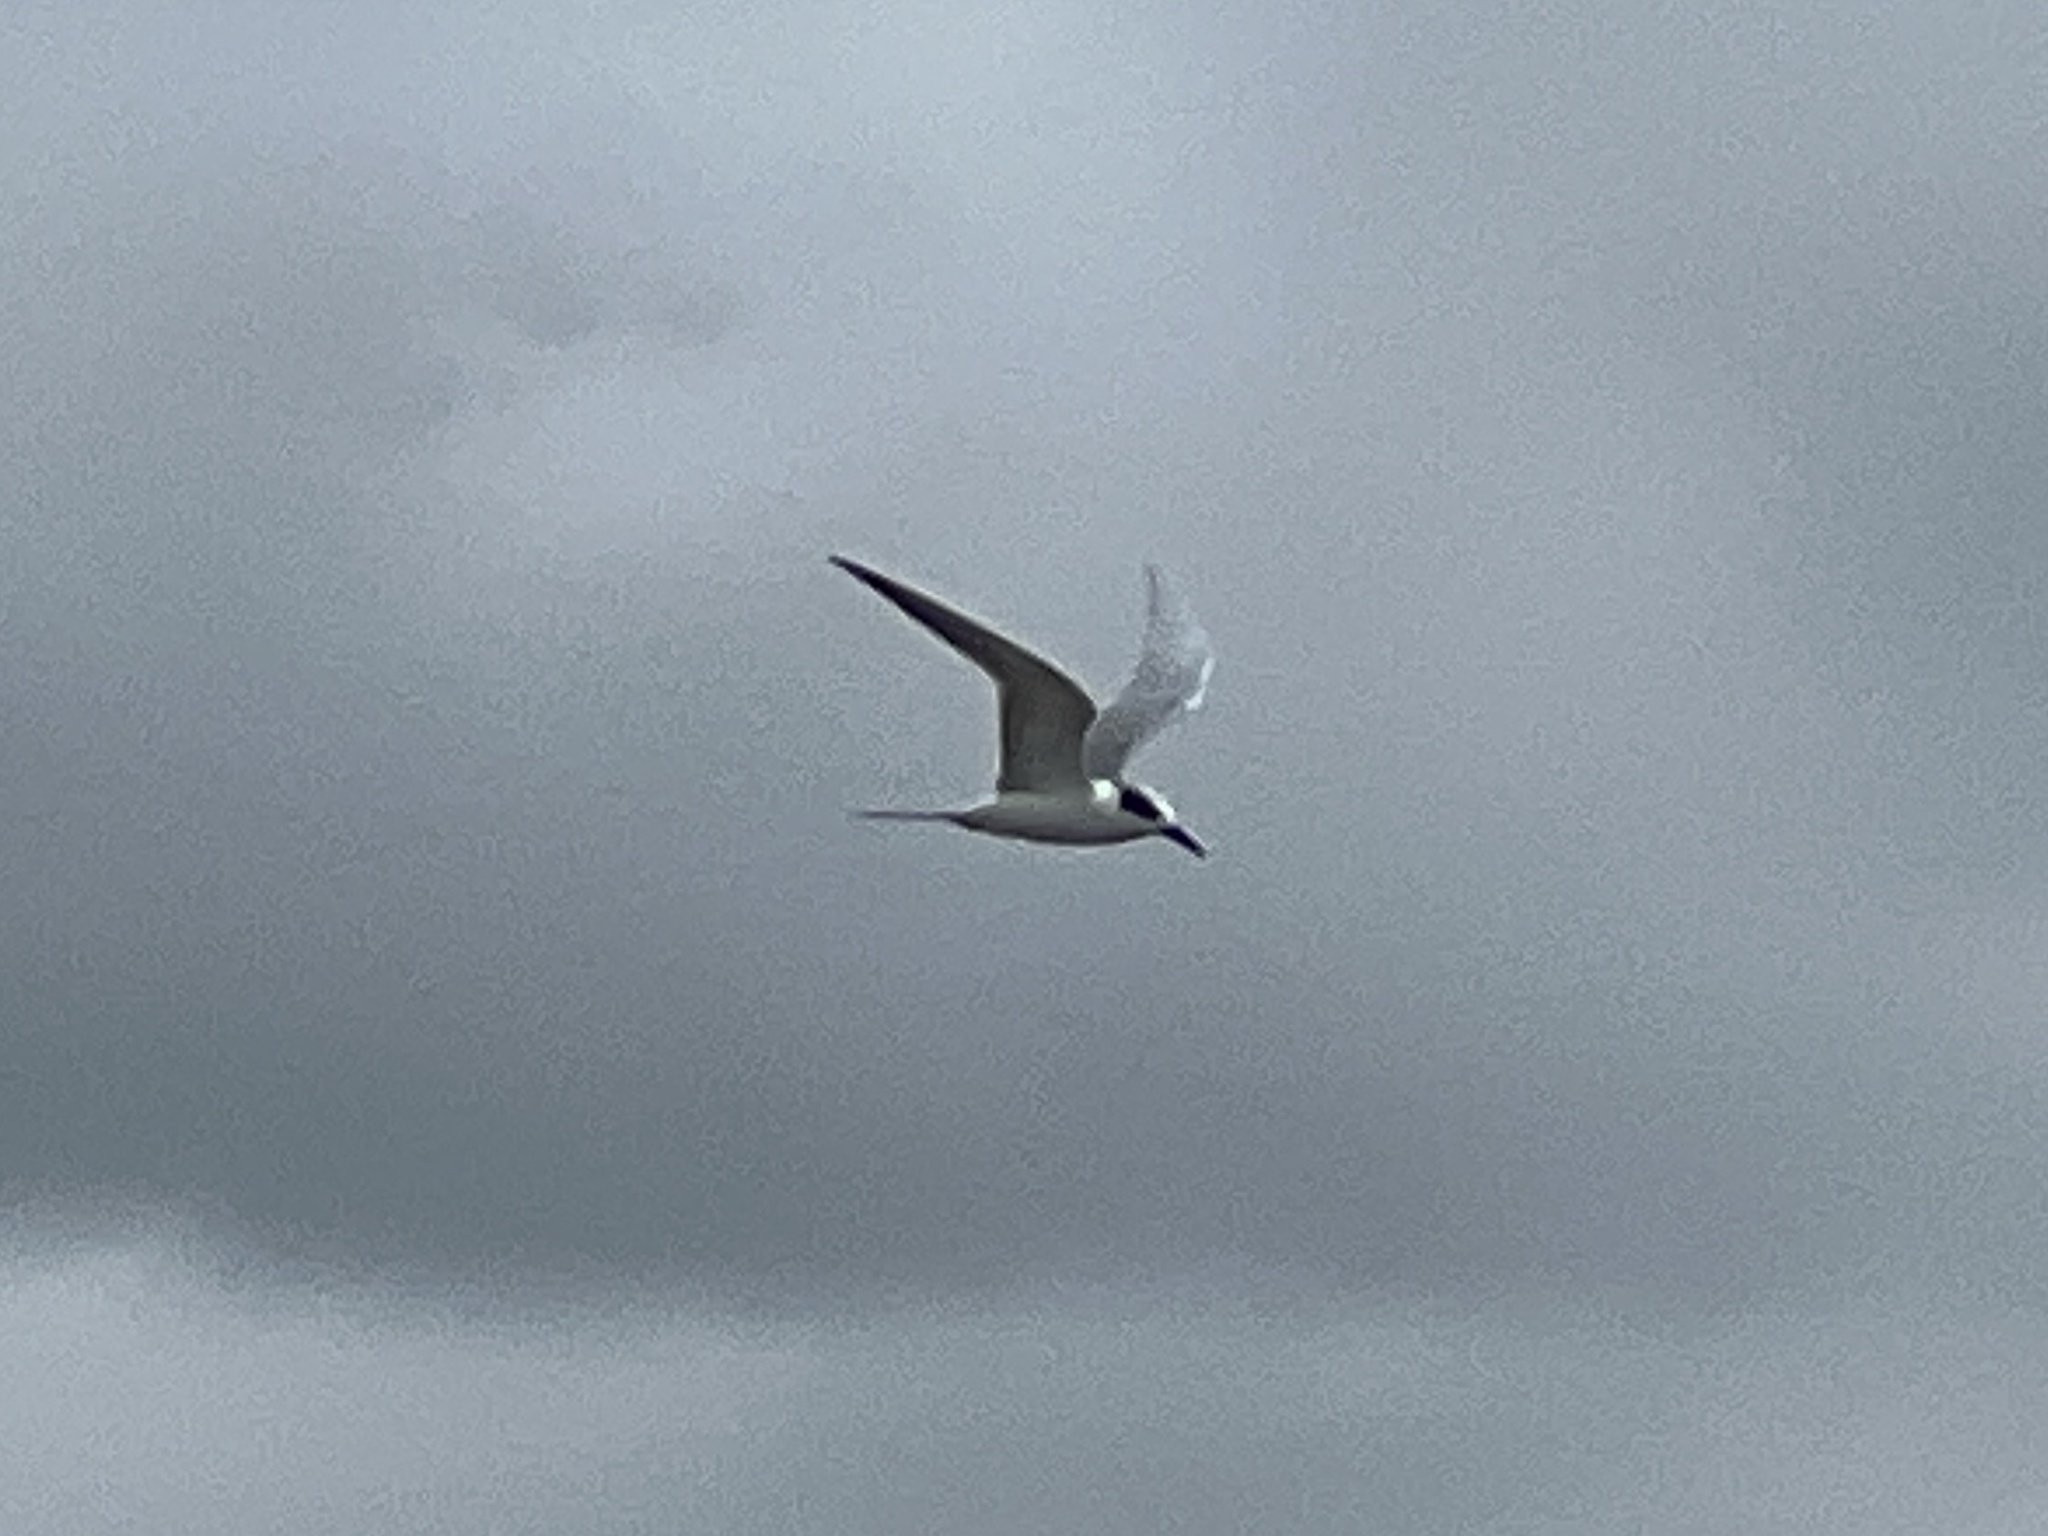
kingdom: Animalia
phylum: Chordata
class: Aves
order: Charadriiformes
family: Laridae
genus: Sterna
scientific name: Sterna forsteri
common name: Forster's tern
